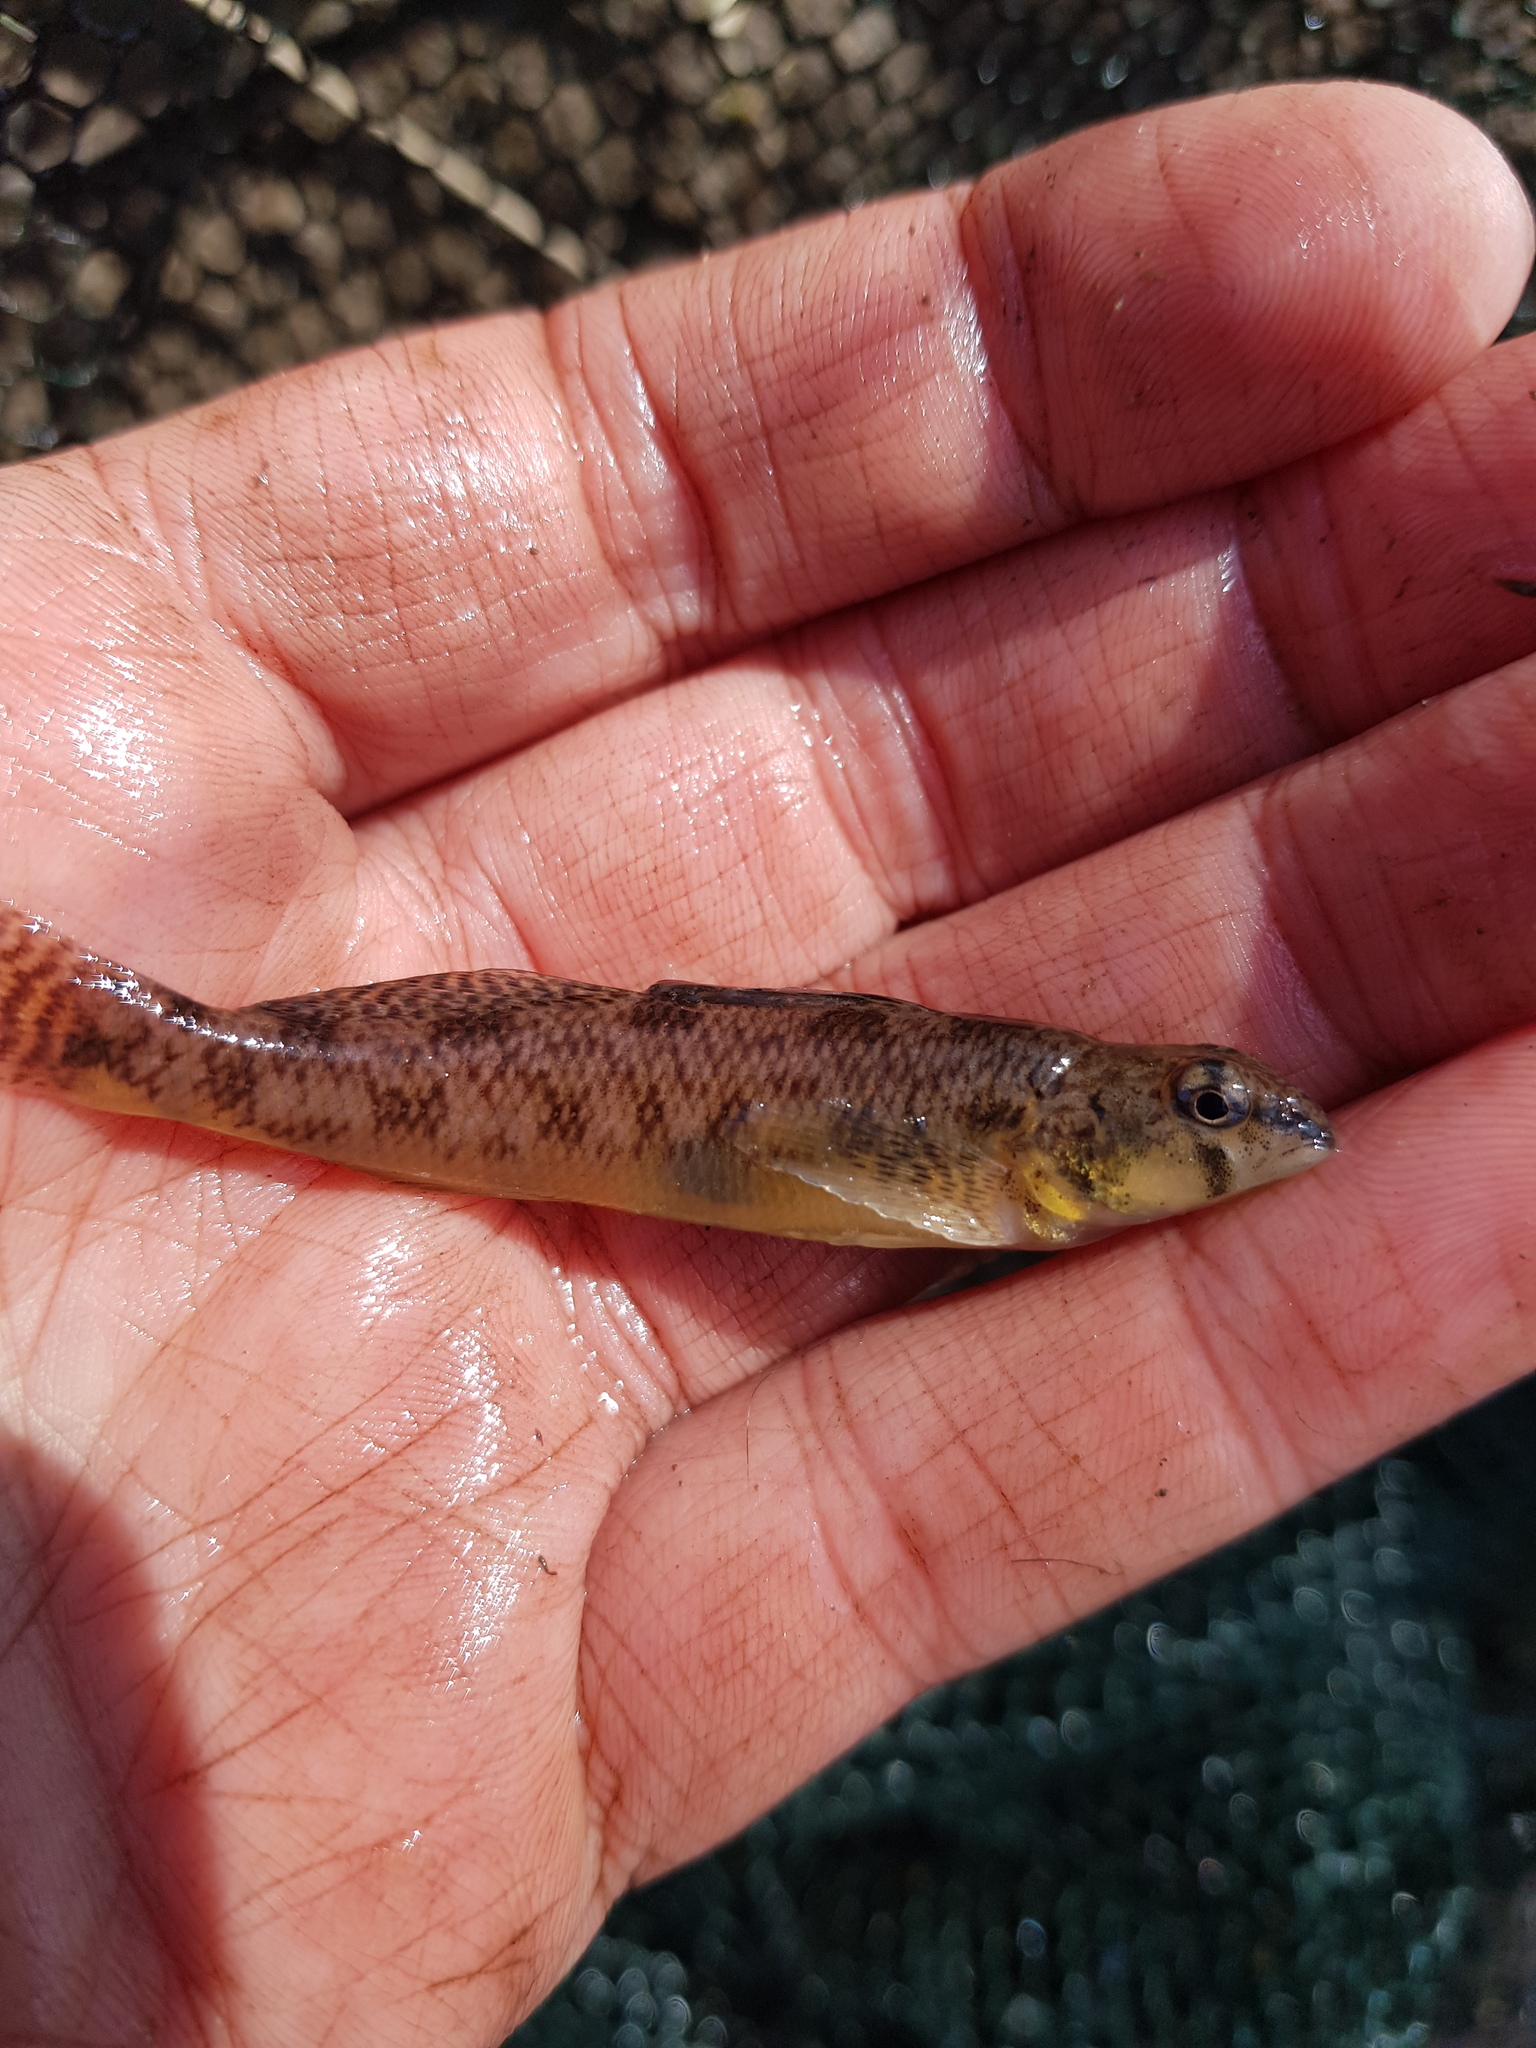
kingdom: Animalia
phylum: Chordata
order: Perciformes
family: Percidae
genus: Etheostoma
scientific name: Etheostoma olmstedi
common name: Tessellated darter
